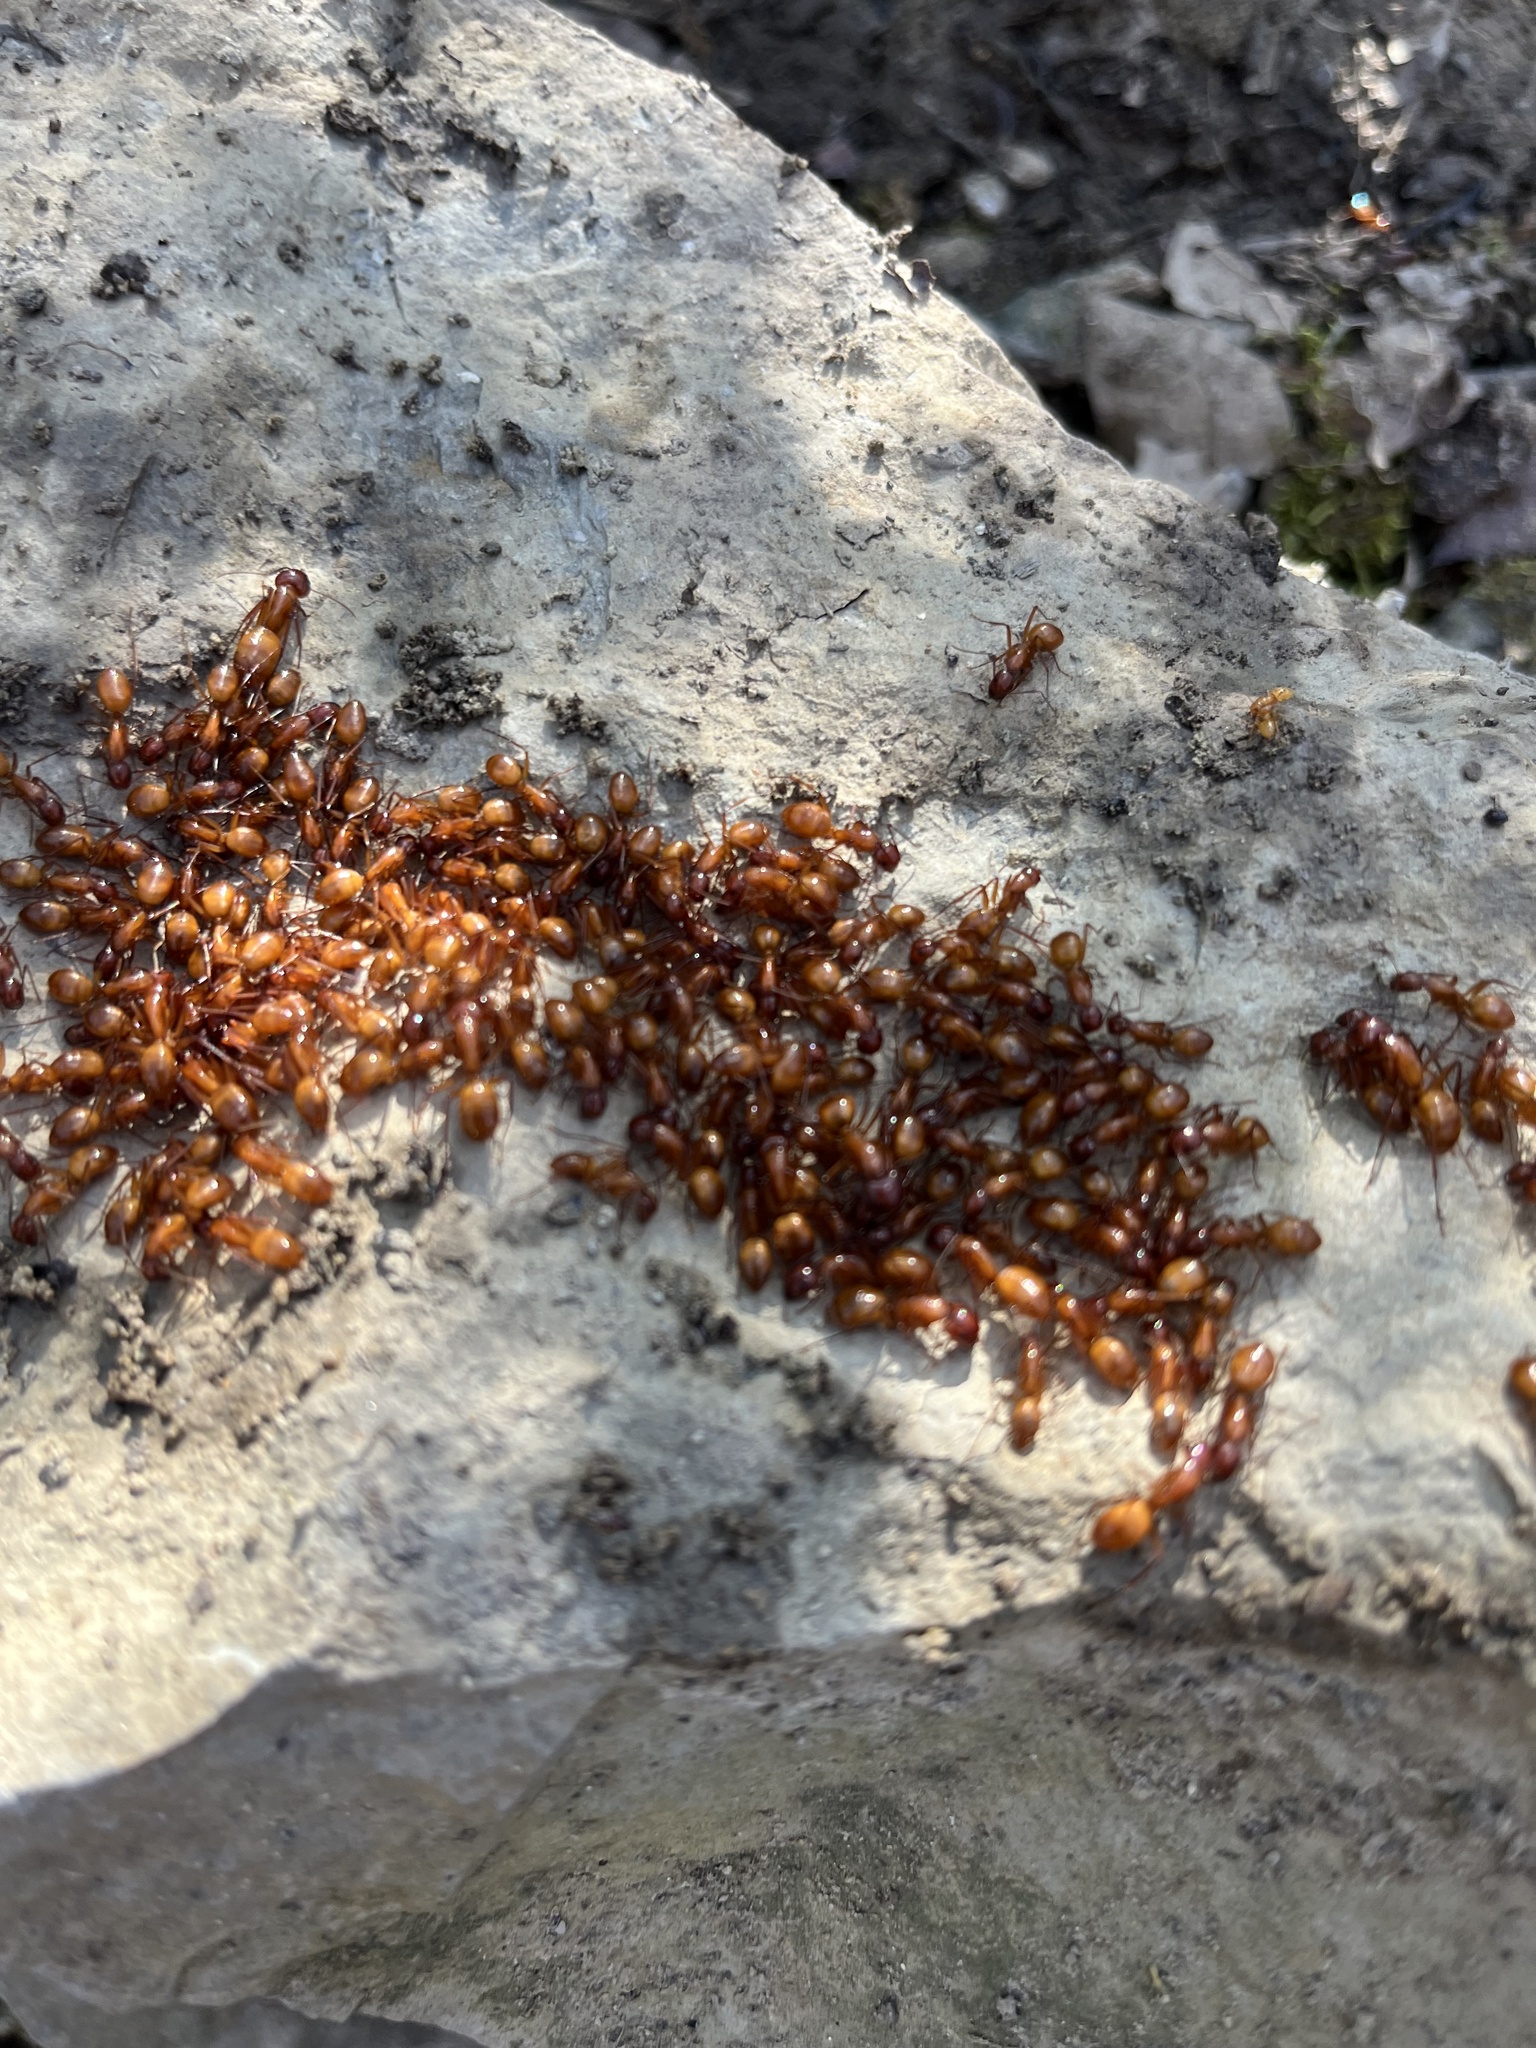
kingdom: Animalia
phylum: Arthropoda
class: Insecta
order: Hymenoptera
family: Formicidae
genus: Camponotus
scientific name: Camponotus castaneus
